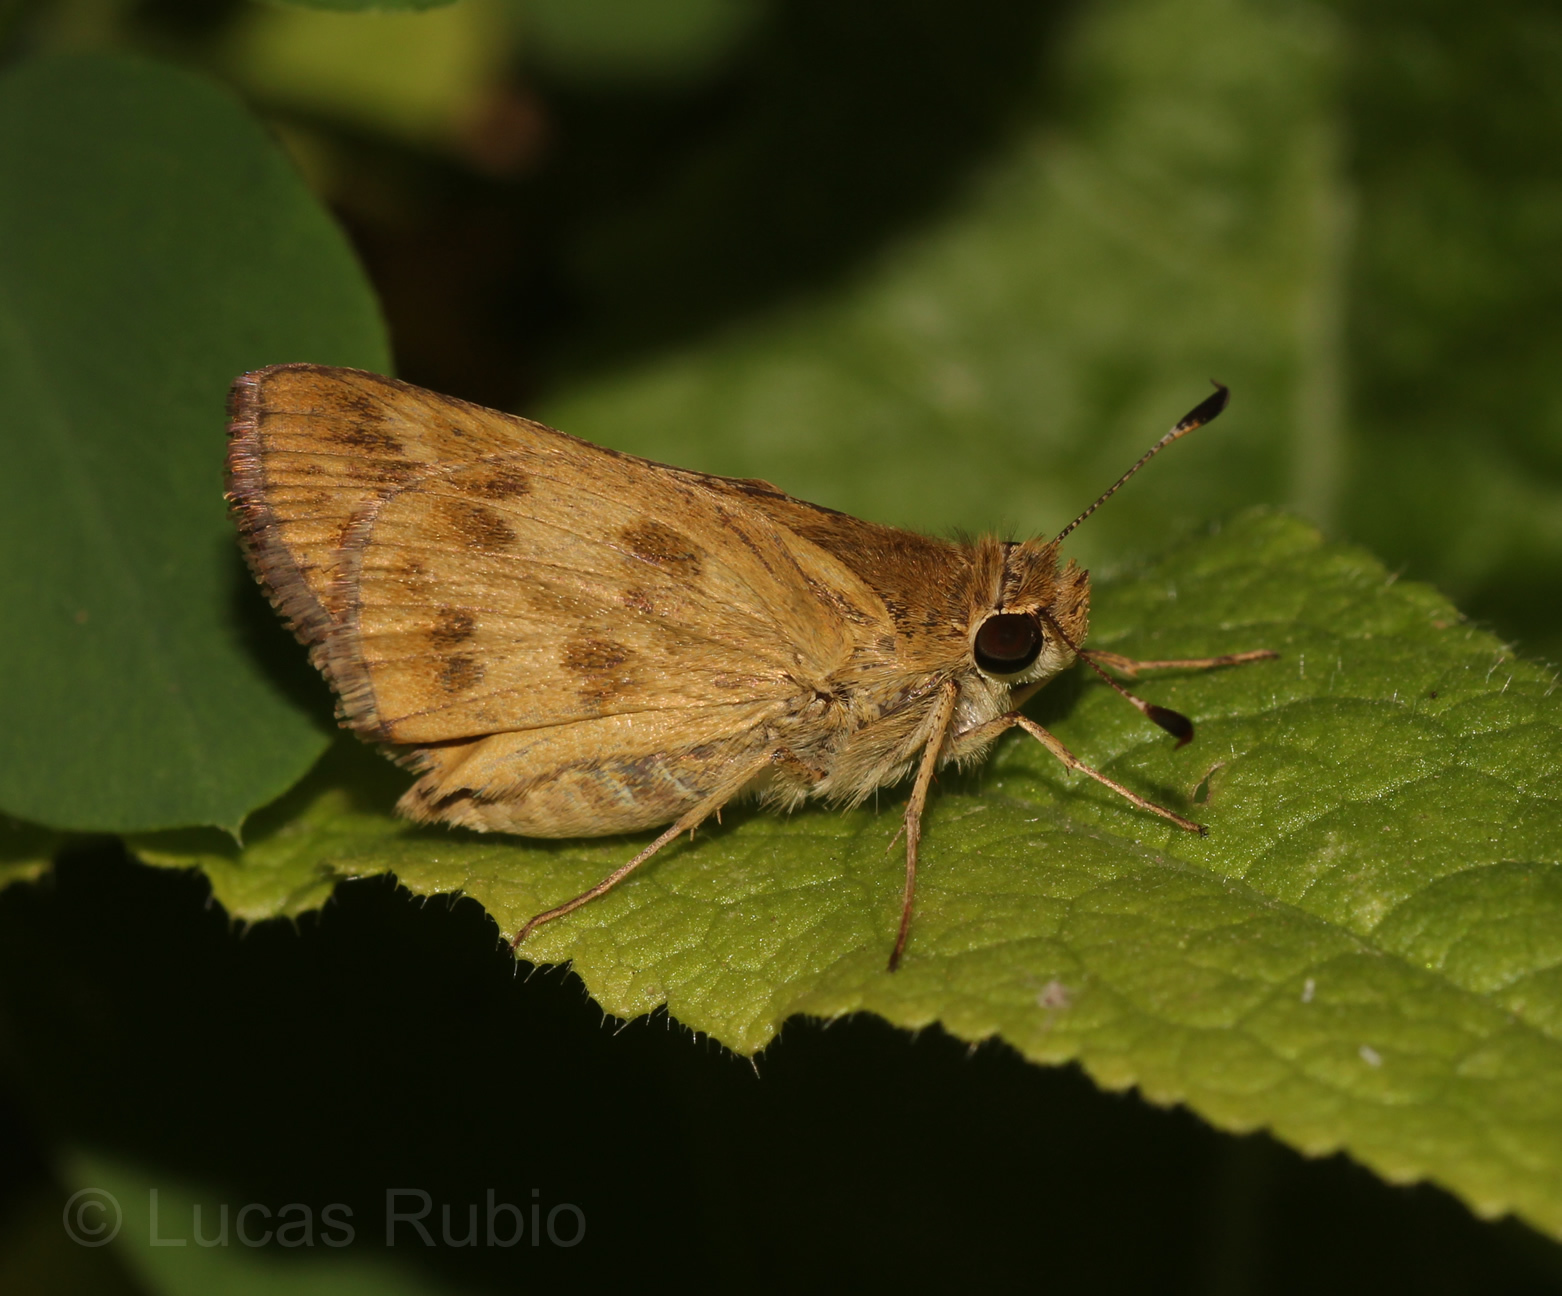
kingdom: Animalia
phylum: Arthropoda
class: Insecta
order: Lepidoptera
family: Hesperiidae
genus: Polites
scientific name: Polites vibex
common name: Whirlabout
